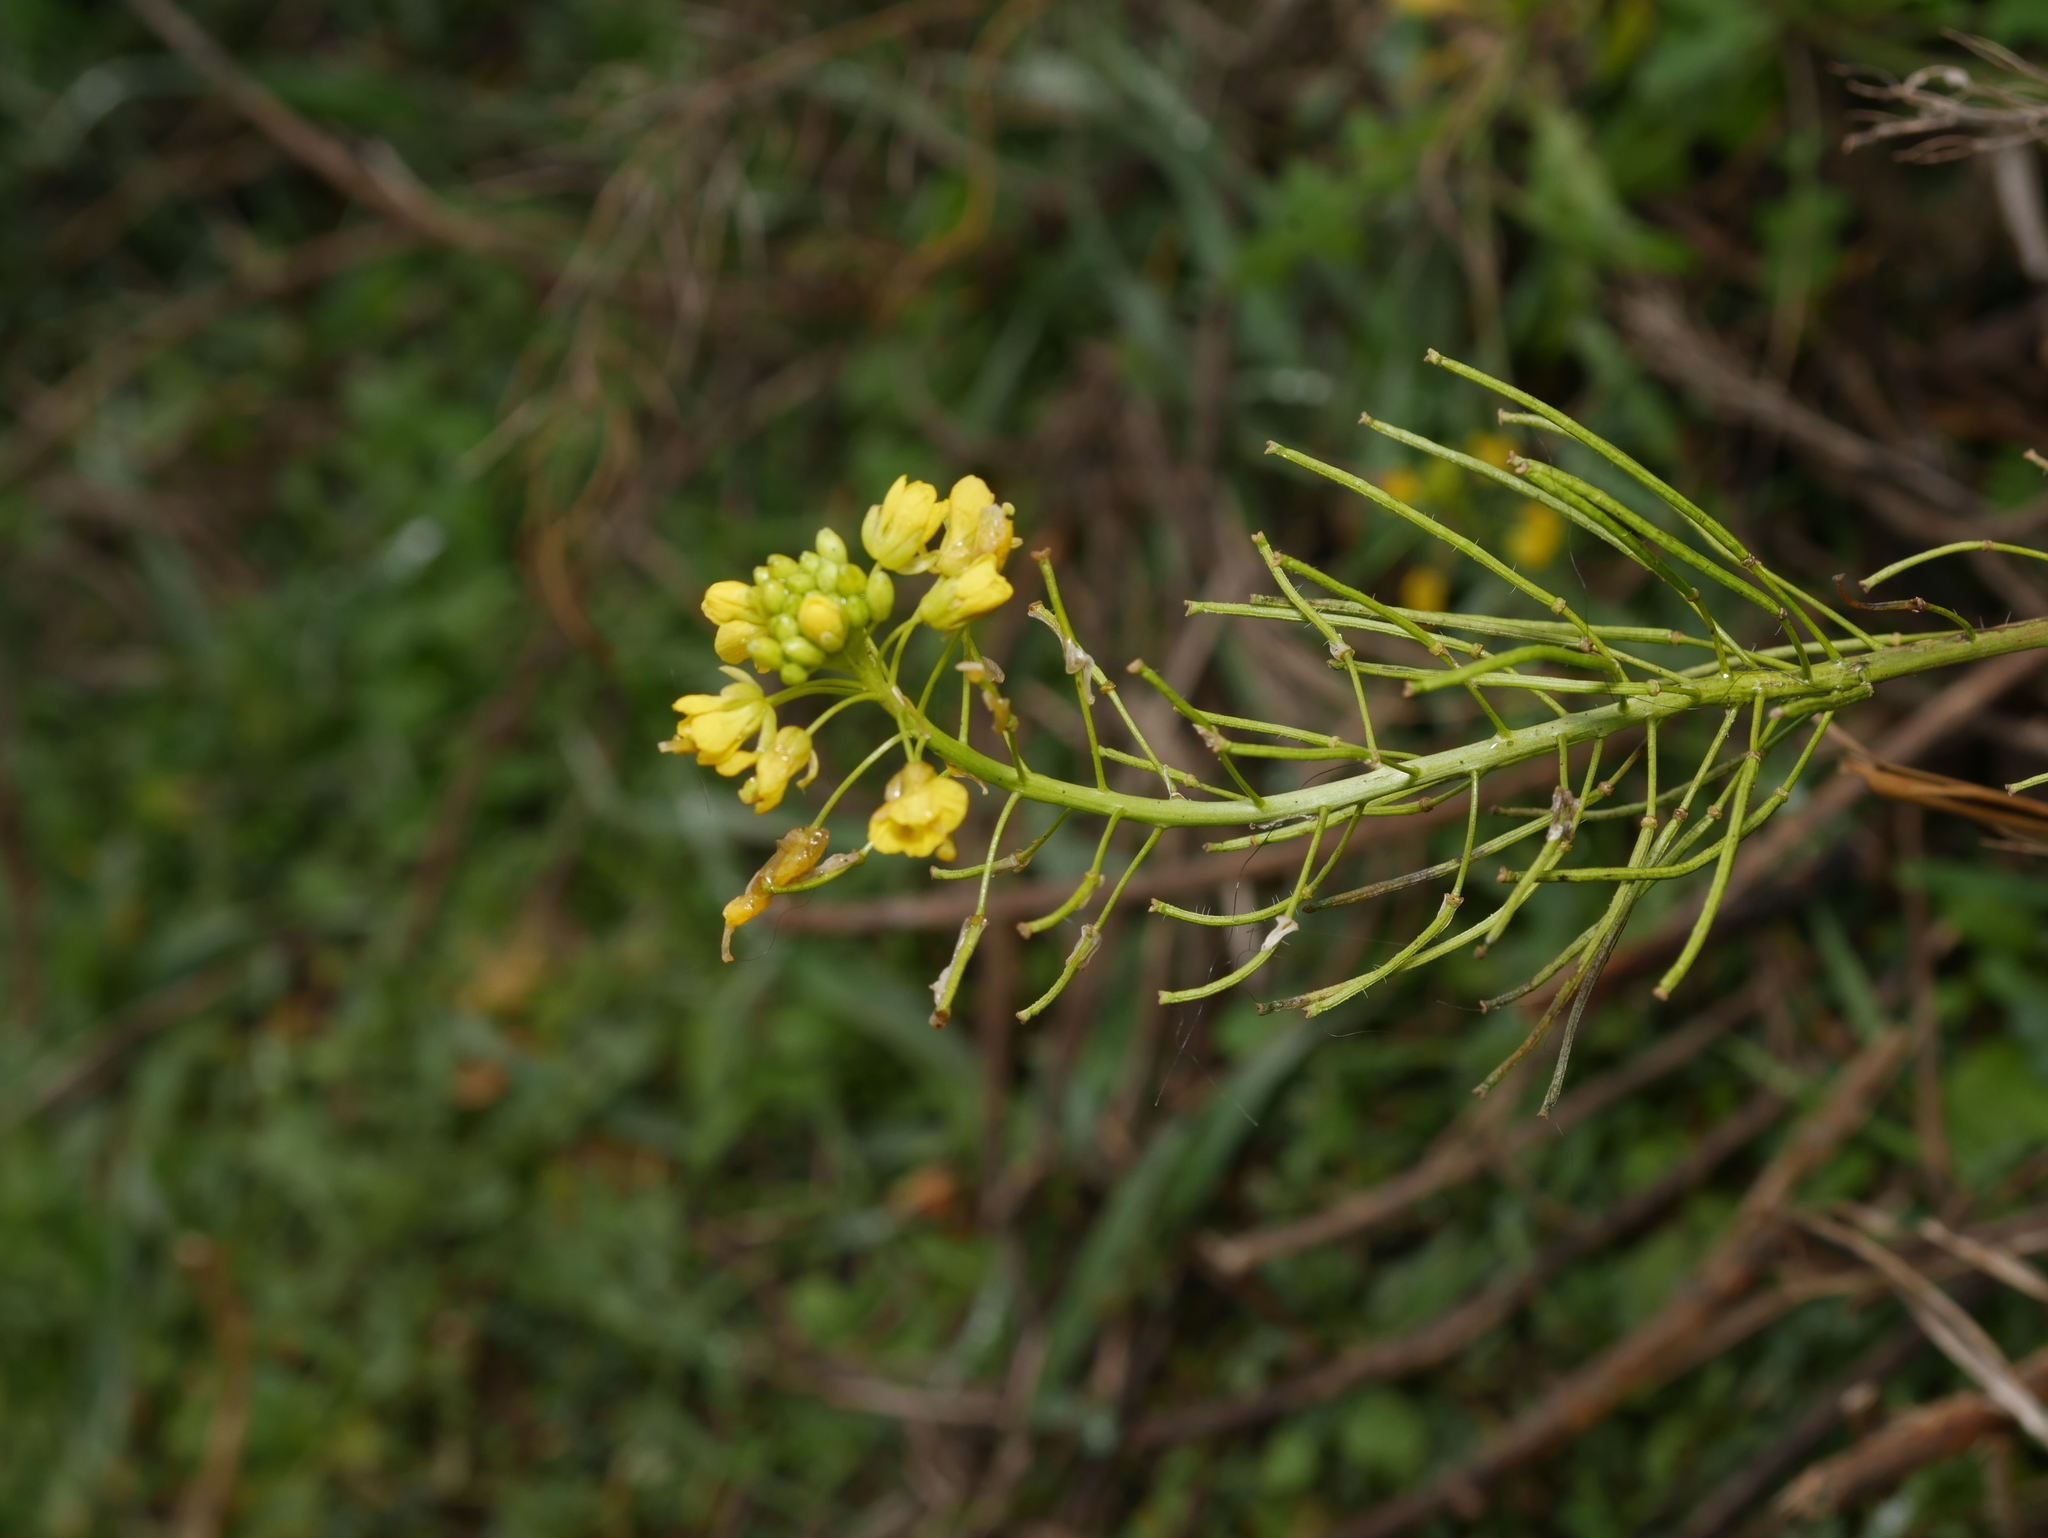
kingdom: Plantae
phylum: Tracheophyta
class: Magnoliopsida
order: Brassicales
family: Brassicaceae
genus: Sisymbrium
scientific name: Sisymbrium loeselii
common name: False london-rocket
